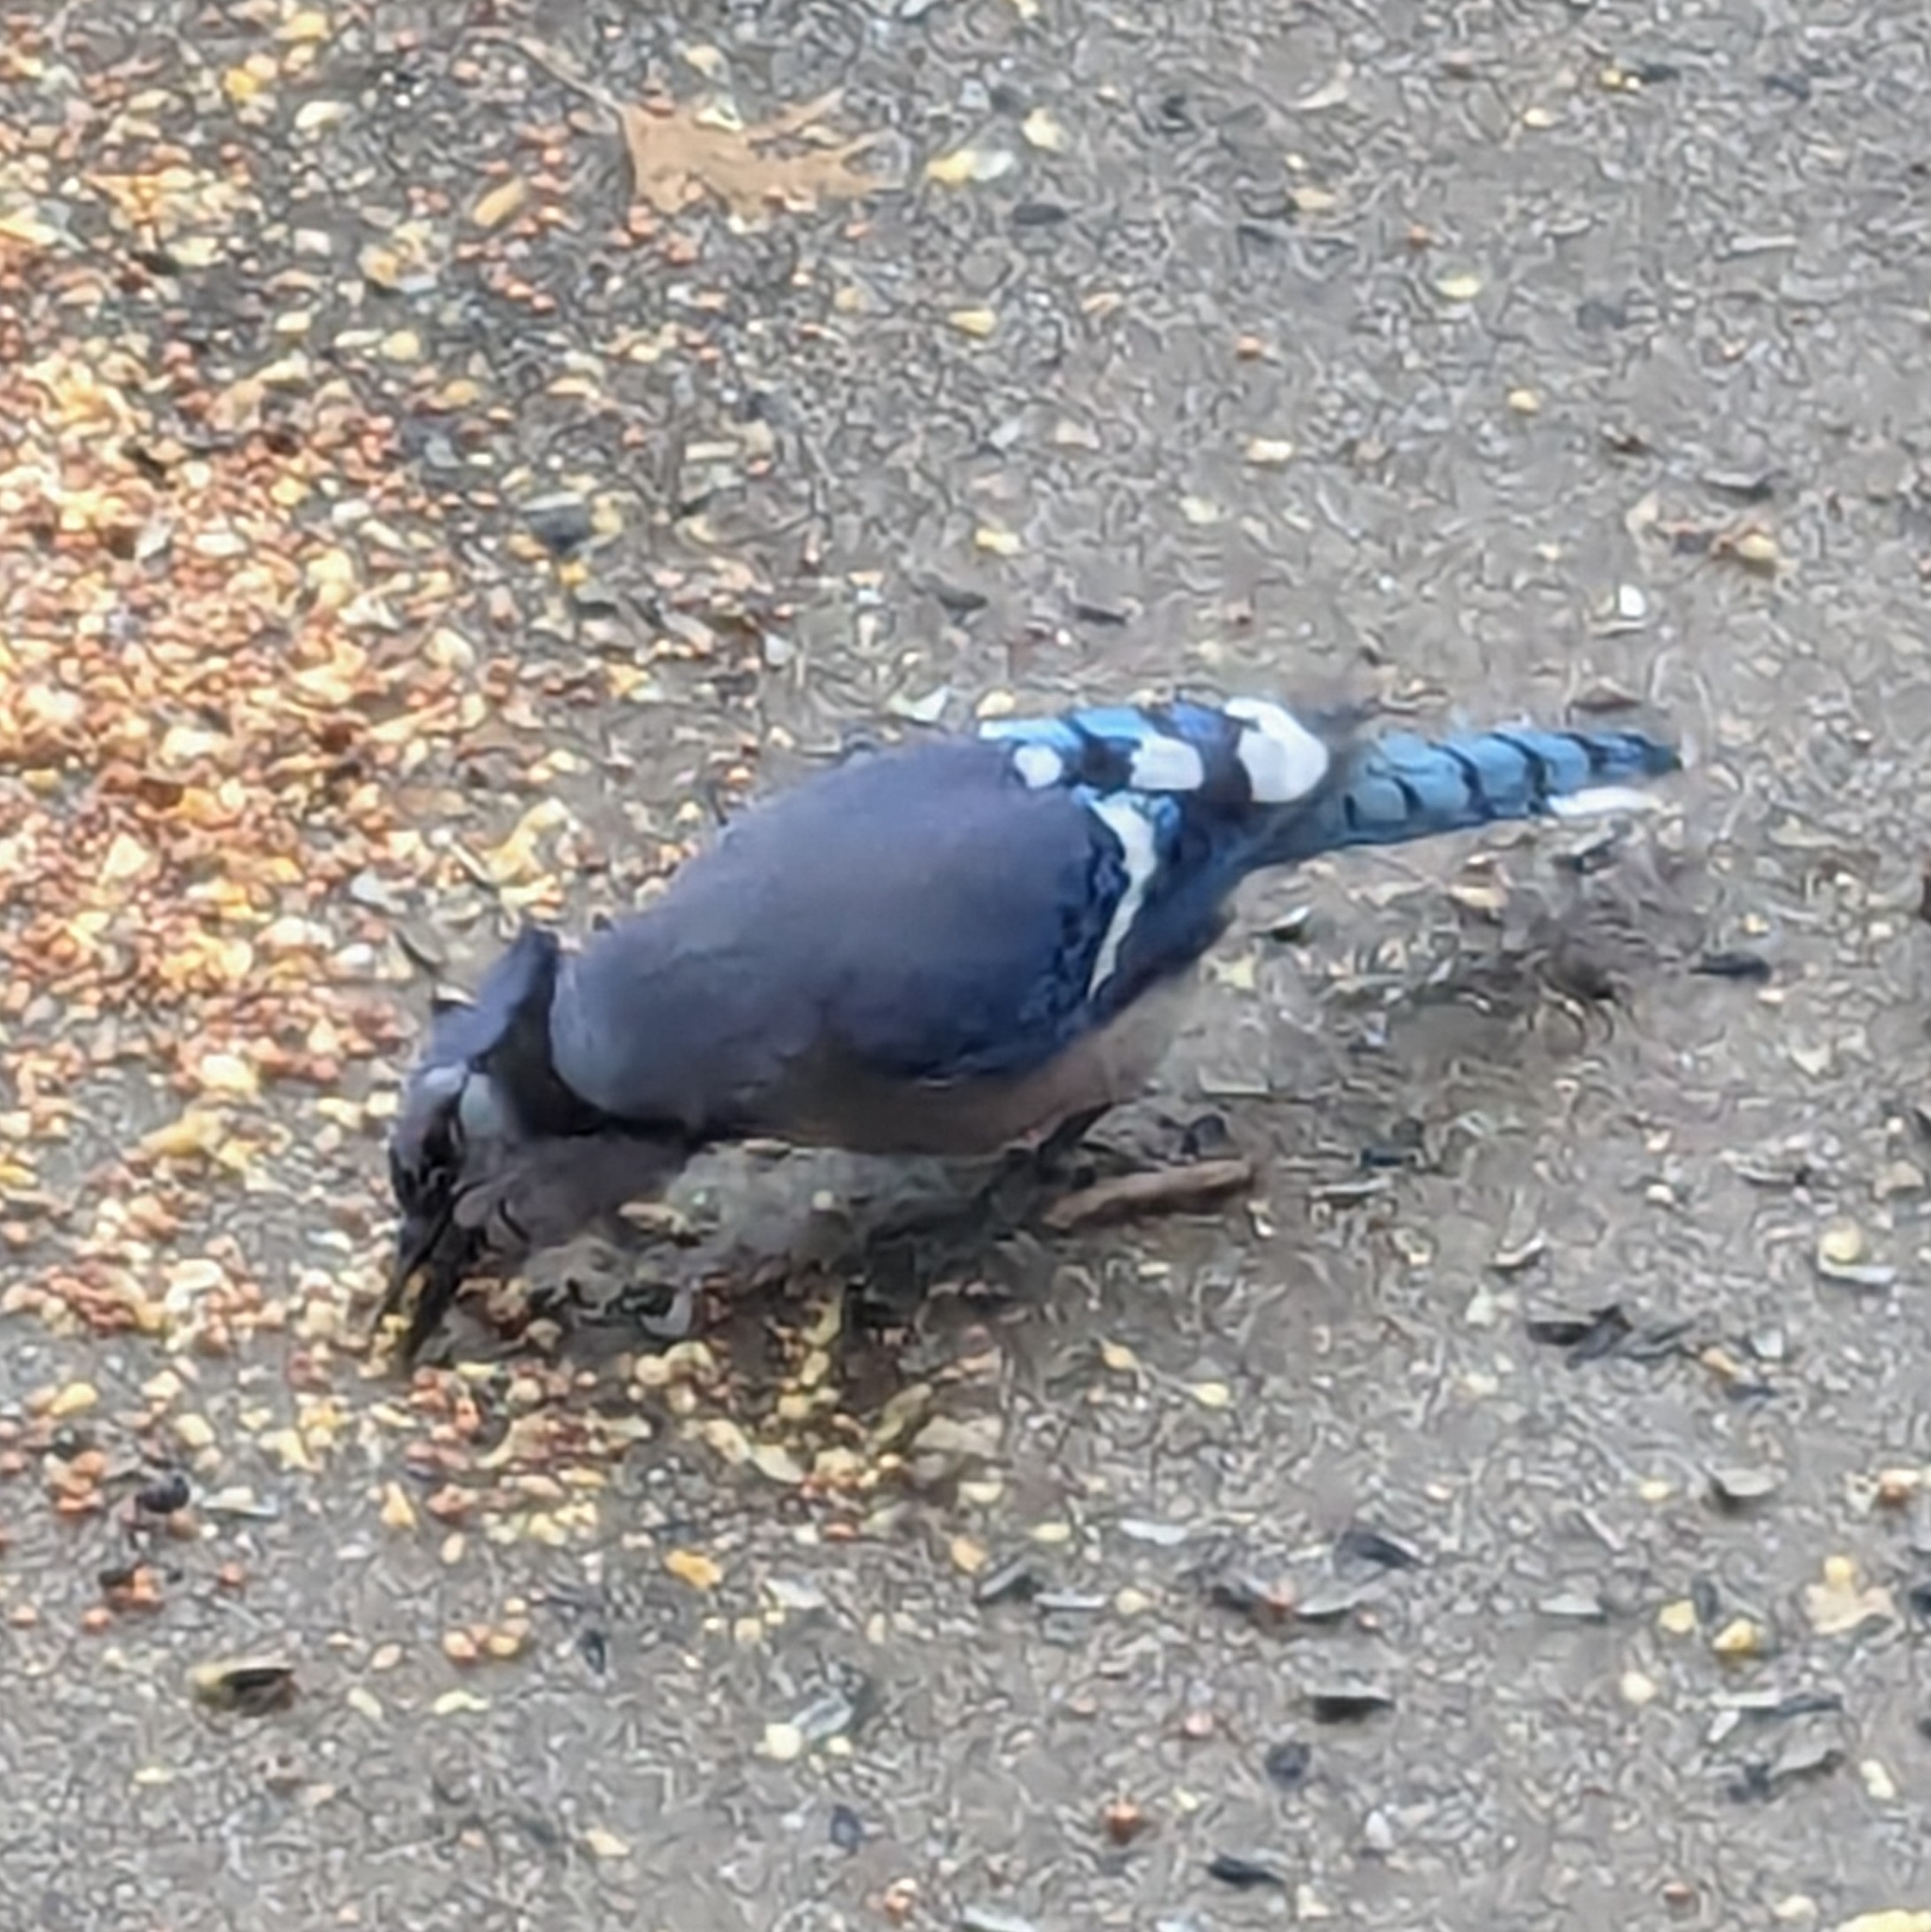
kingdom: Animalia
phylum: Chordata
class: Aves
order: Passeriformes
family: Corvidae
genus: Cyanocitta
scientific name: Cyanocitta cristata
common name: Blue jay
